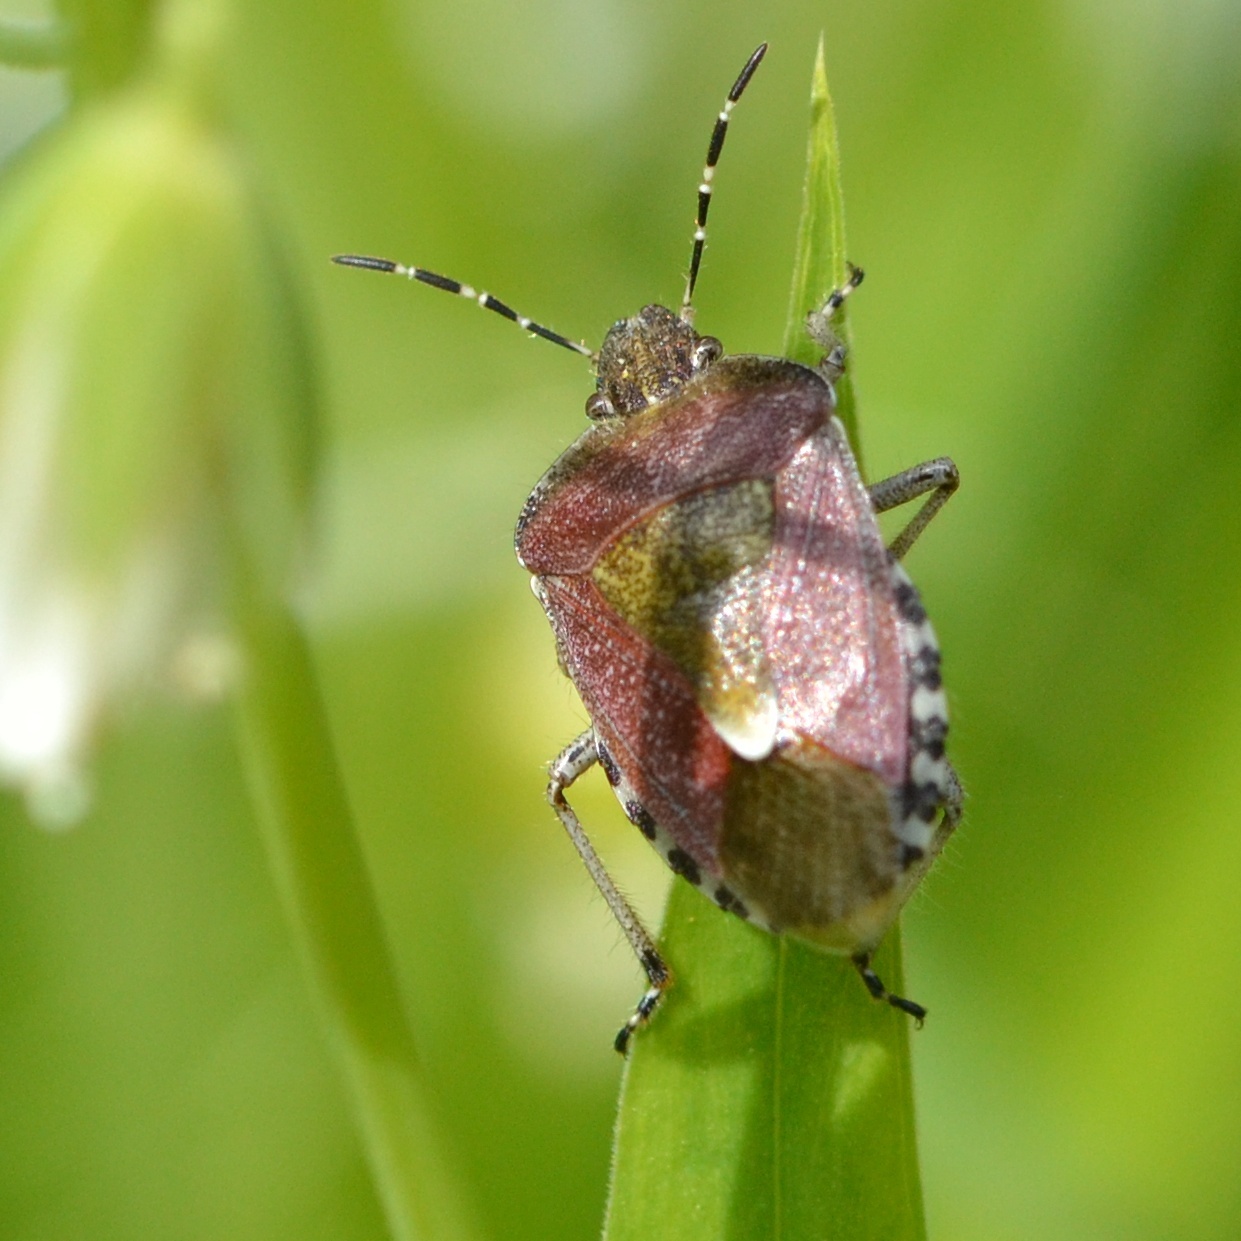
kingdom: Animalia
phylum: Arthropoda
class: Insecta
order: Hemiptera
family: Pentatomidae
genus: Dolycoris
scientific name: Dolycoris baccarum
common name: Sloe bug
